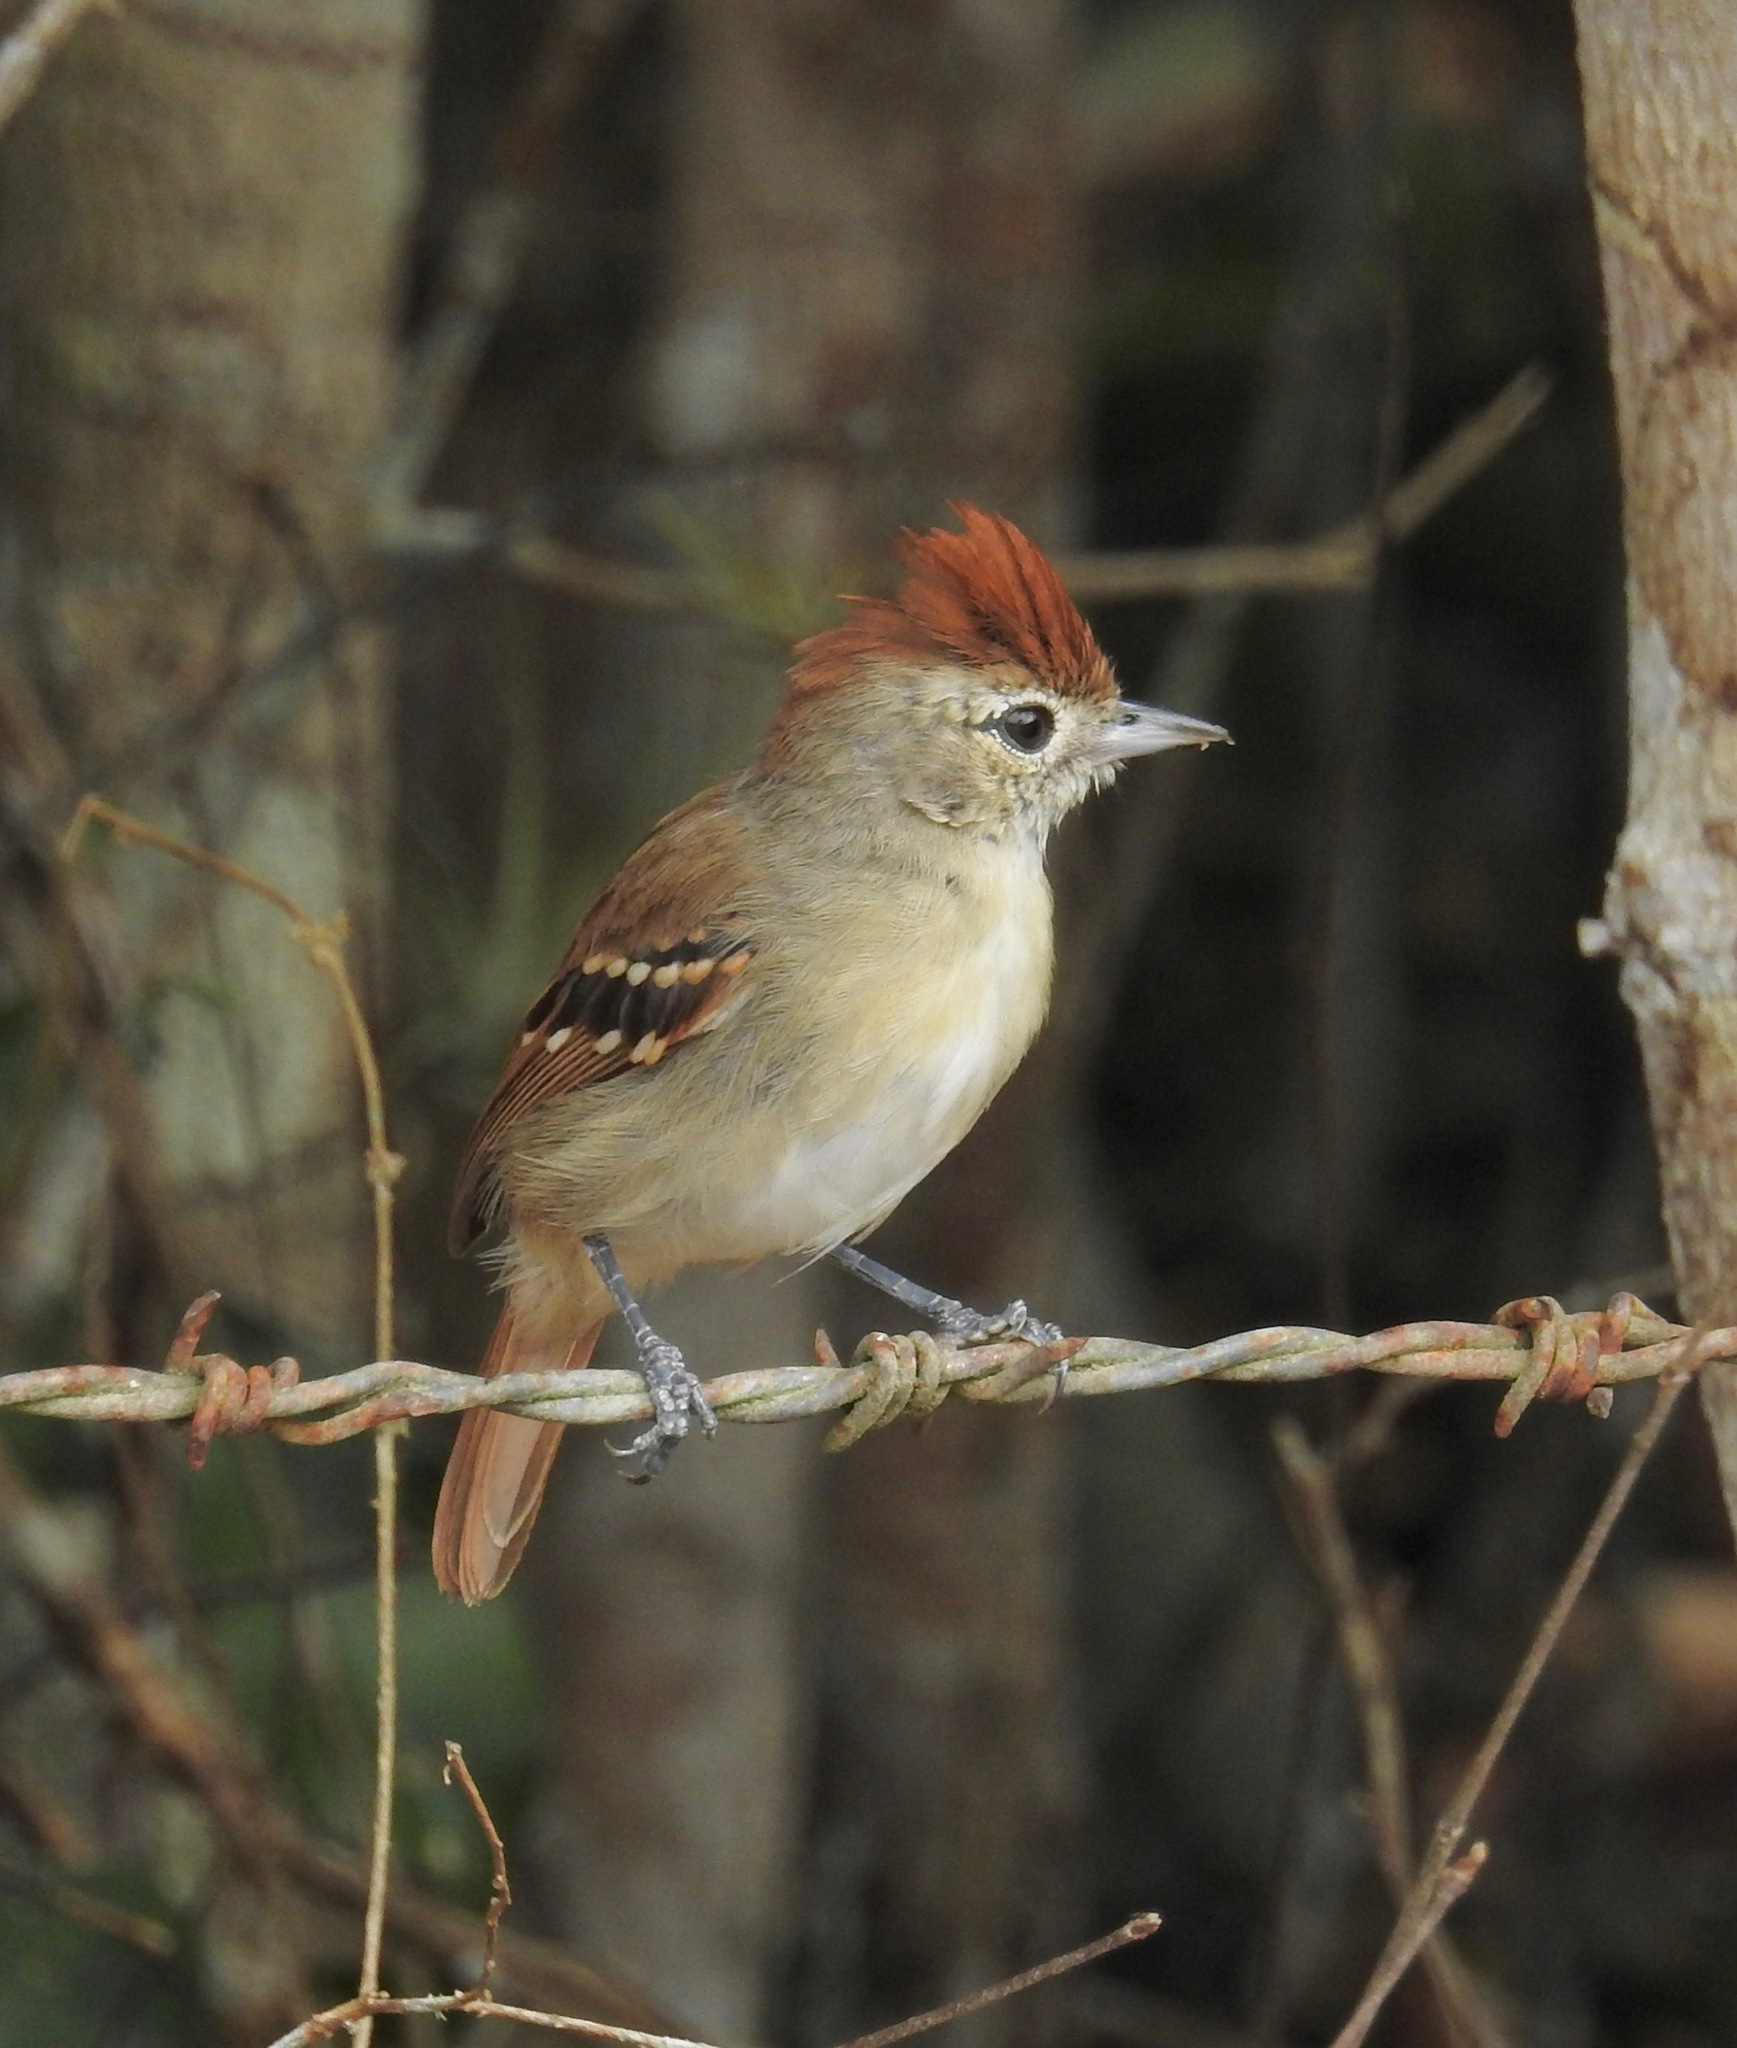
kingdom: Animalia
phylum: Chordata
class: Aves
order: Passeriformes
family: Thamnophilidae
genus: Sakesphorus
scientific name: Sakesphorus cristatus
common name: Silvery-cheeked antshrike
